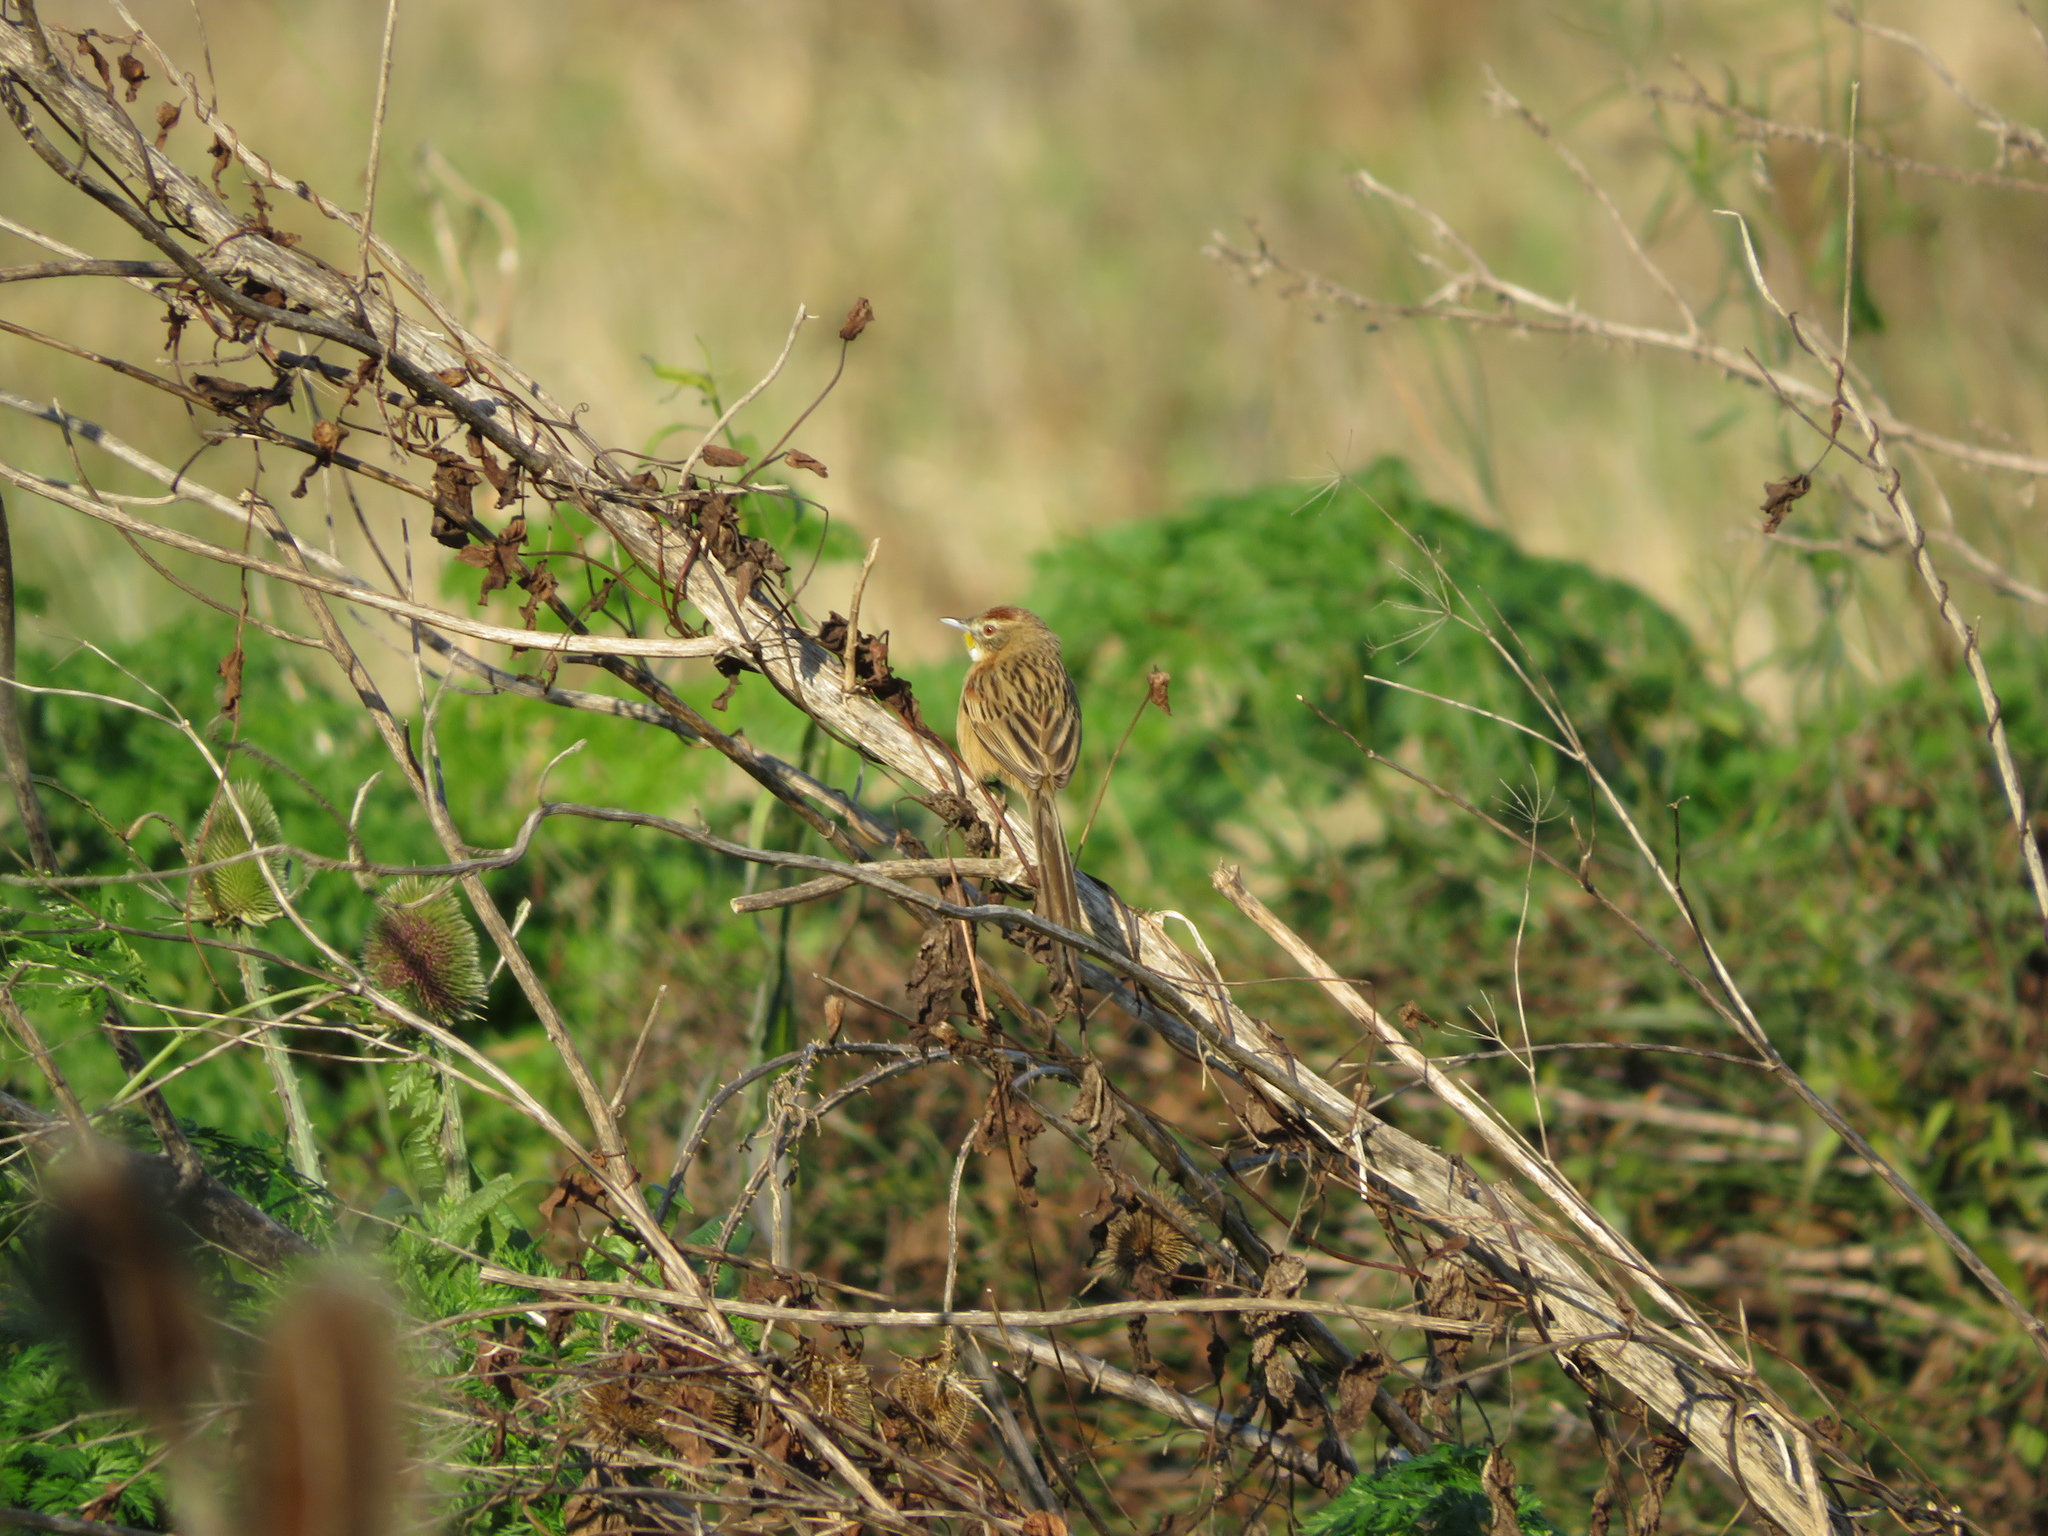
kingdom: Animalia
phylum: Chordata
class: Aves
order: Passeriformes
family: Furnariidae
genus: Schoeniophylax
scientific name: Schoeniophylax phryganophilus
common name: Chotoy spinetail
